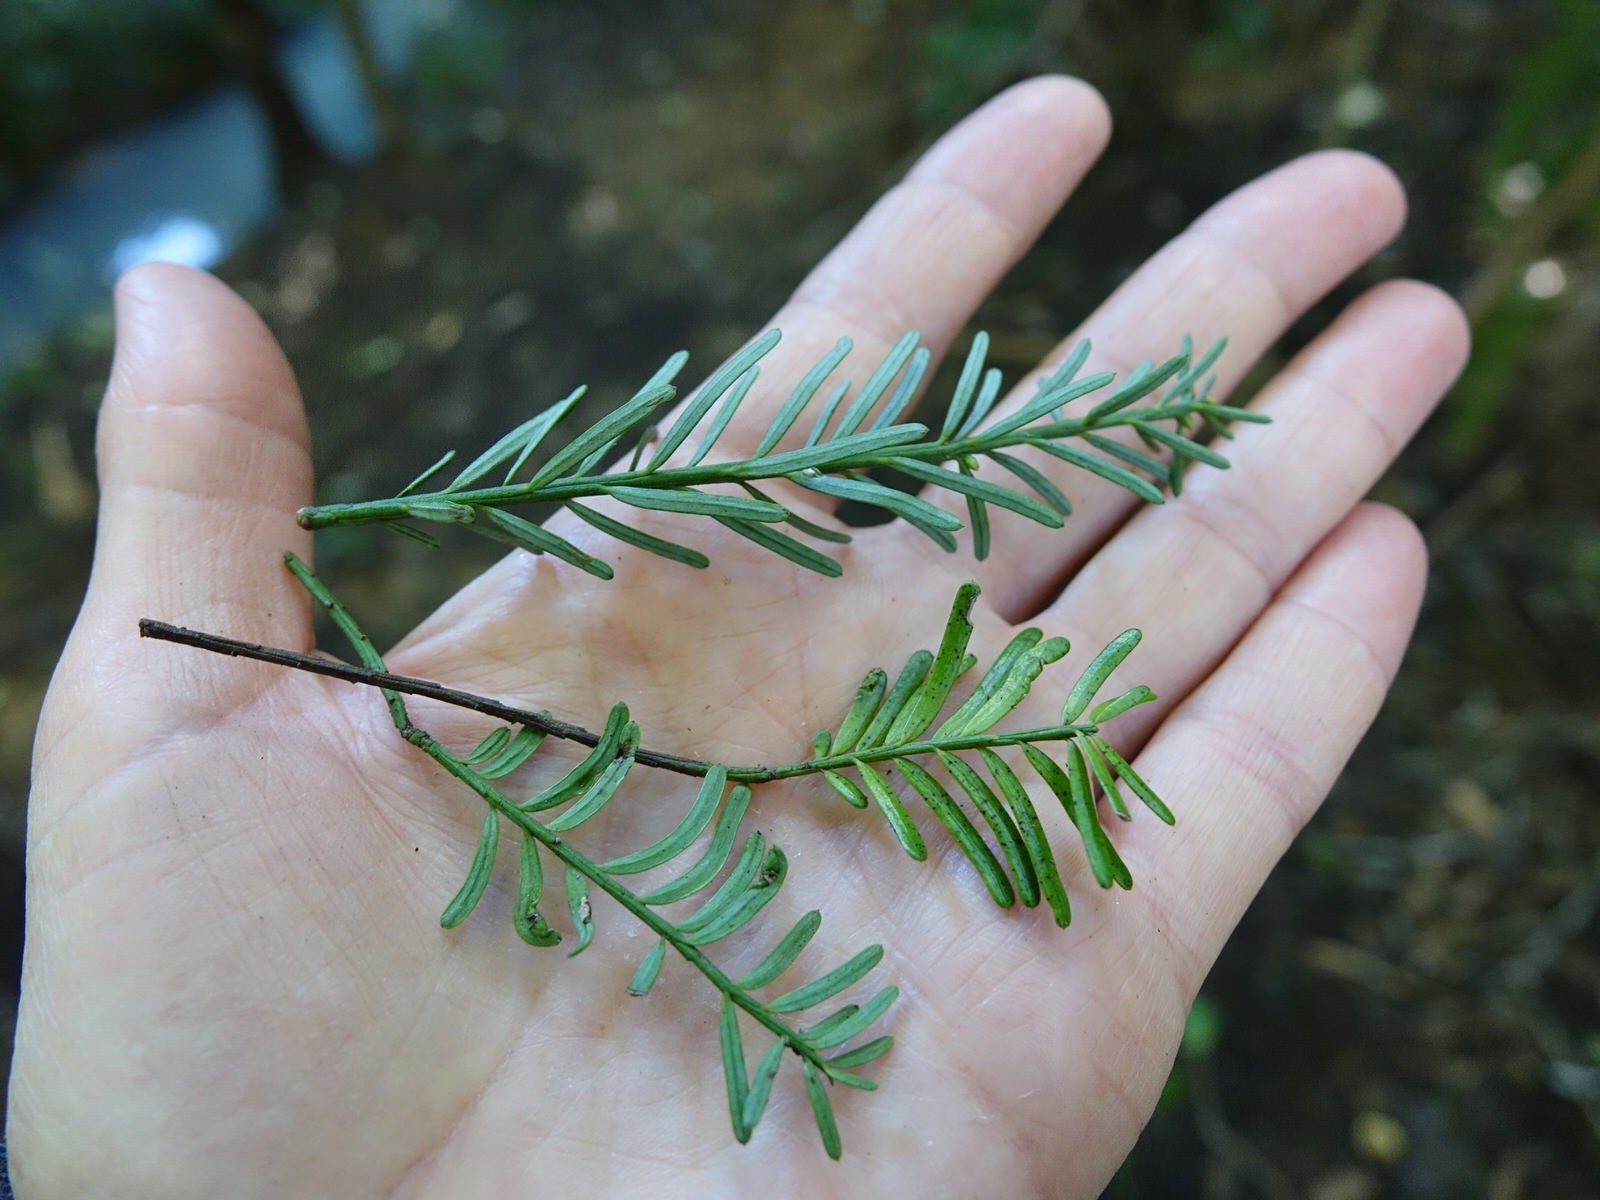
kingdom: Plantae
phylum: Tracheophyta
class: Pinopsida
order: Pinales
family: Podocarpaceae
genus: Prumnopitys
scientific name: Prumnopitys taxifolia
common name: Matai
